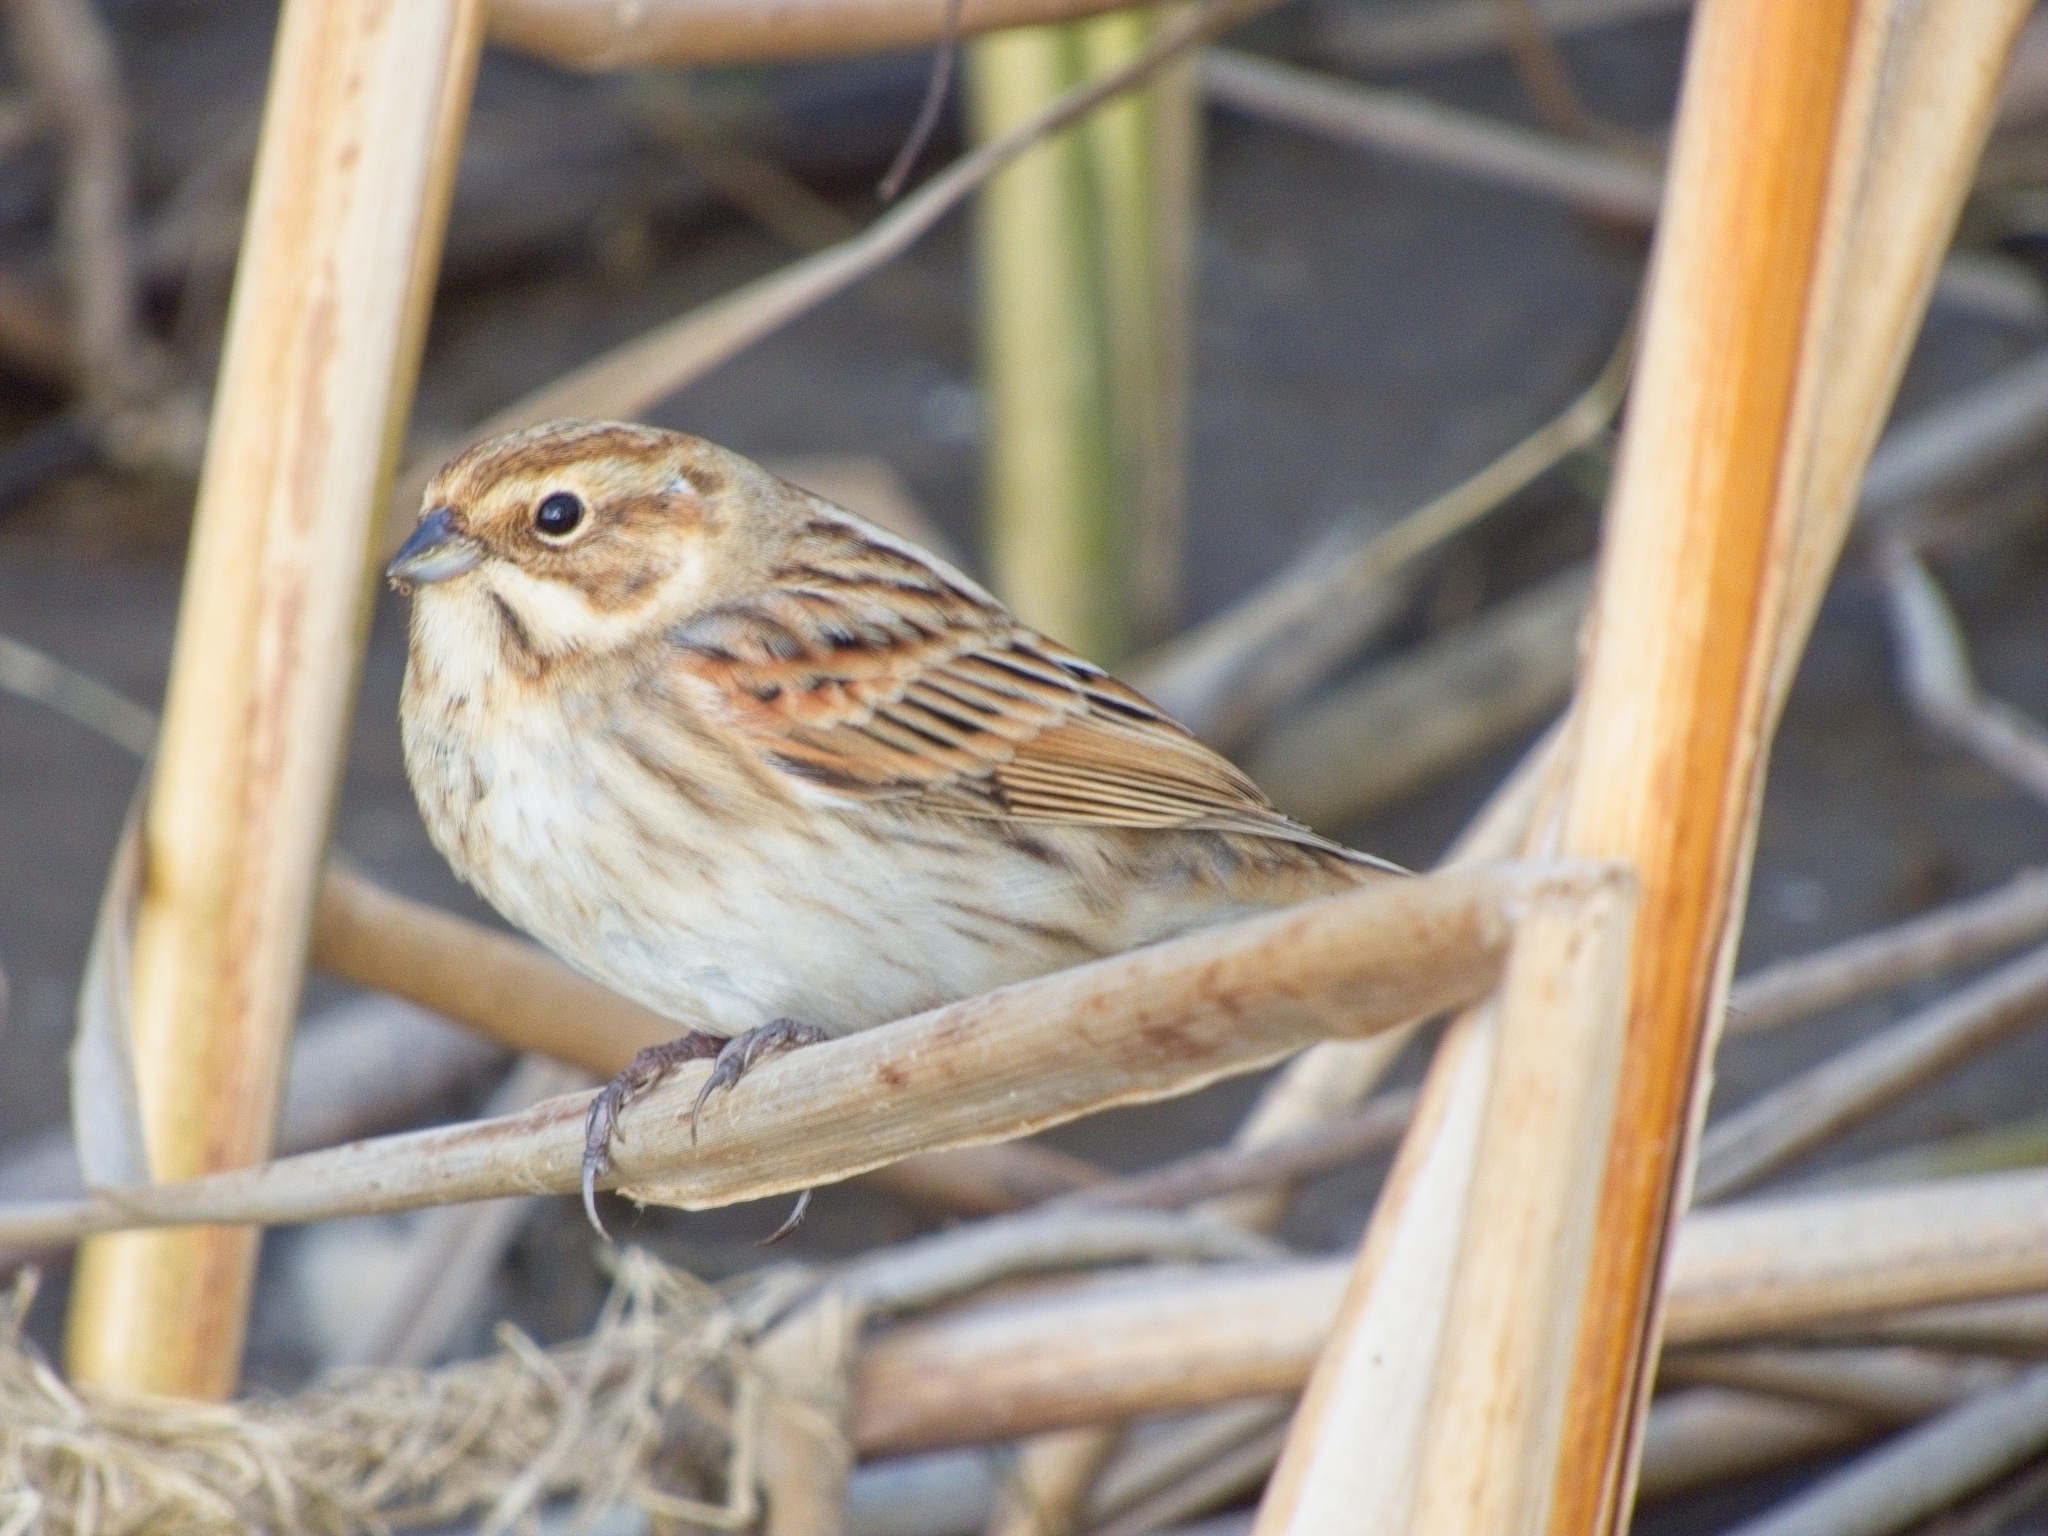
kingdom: Animalia
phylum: Chordata
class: Aves
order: Passeriformes
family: Emberizidae
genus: Emberiza
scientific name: Emberiza schoeniclus
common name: Reed bunting
